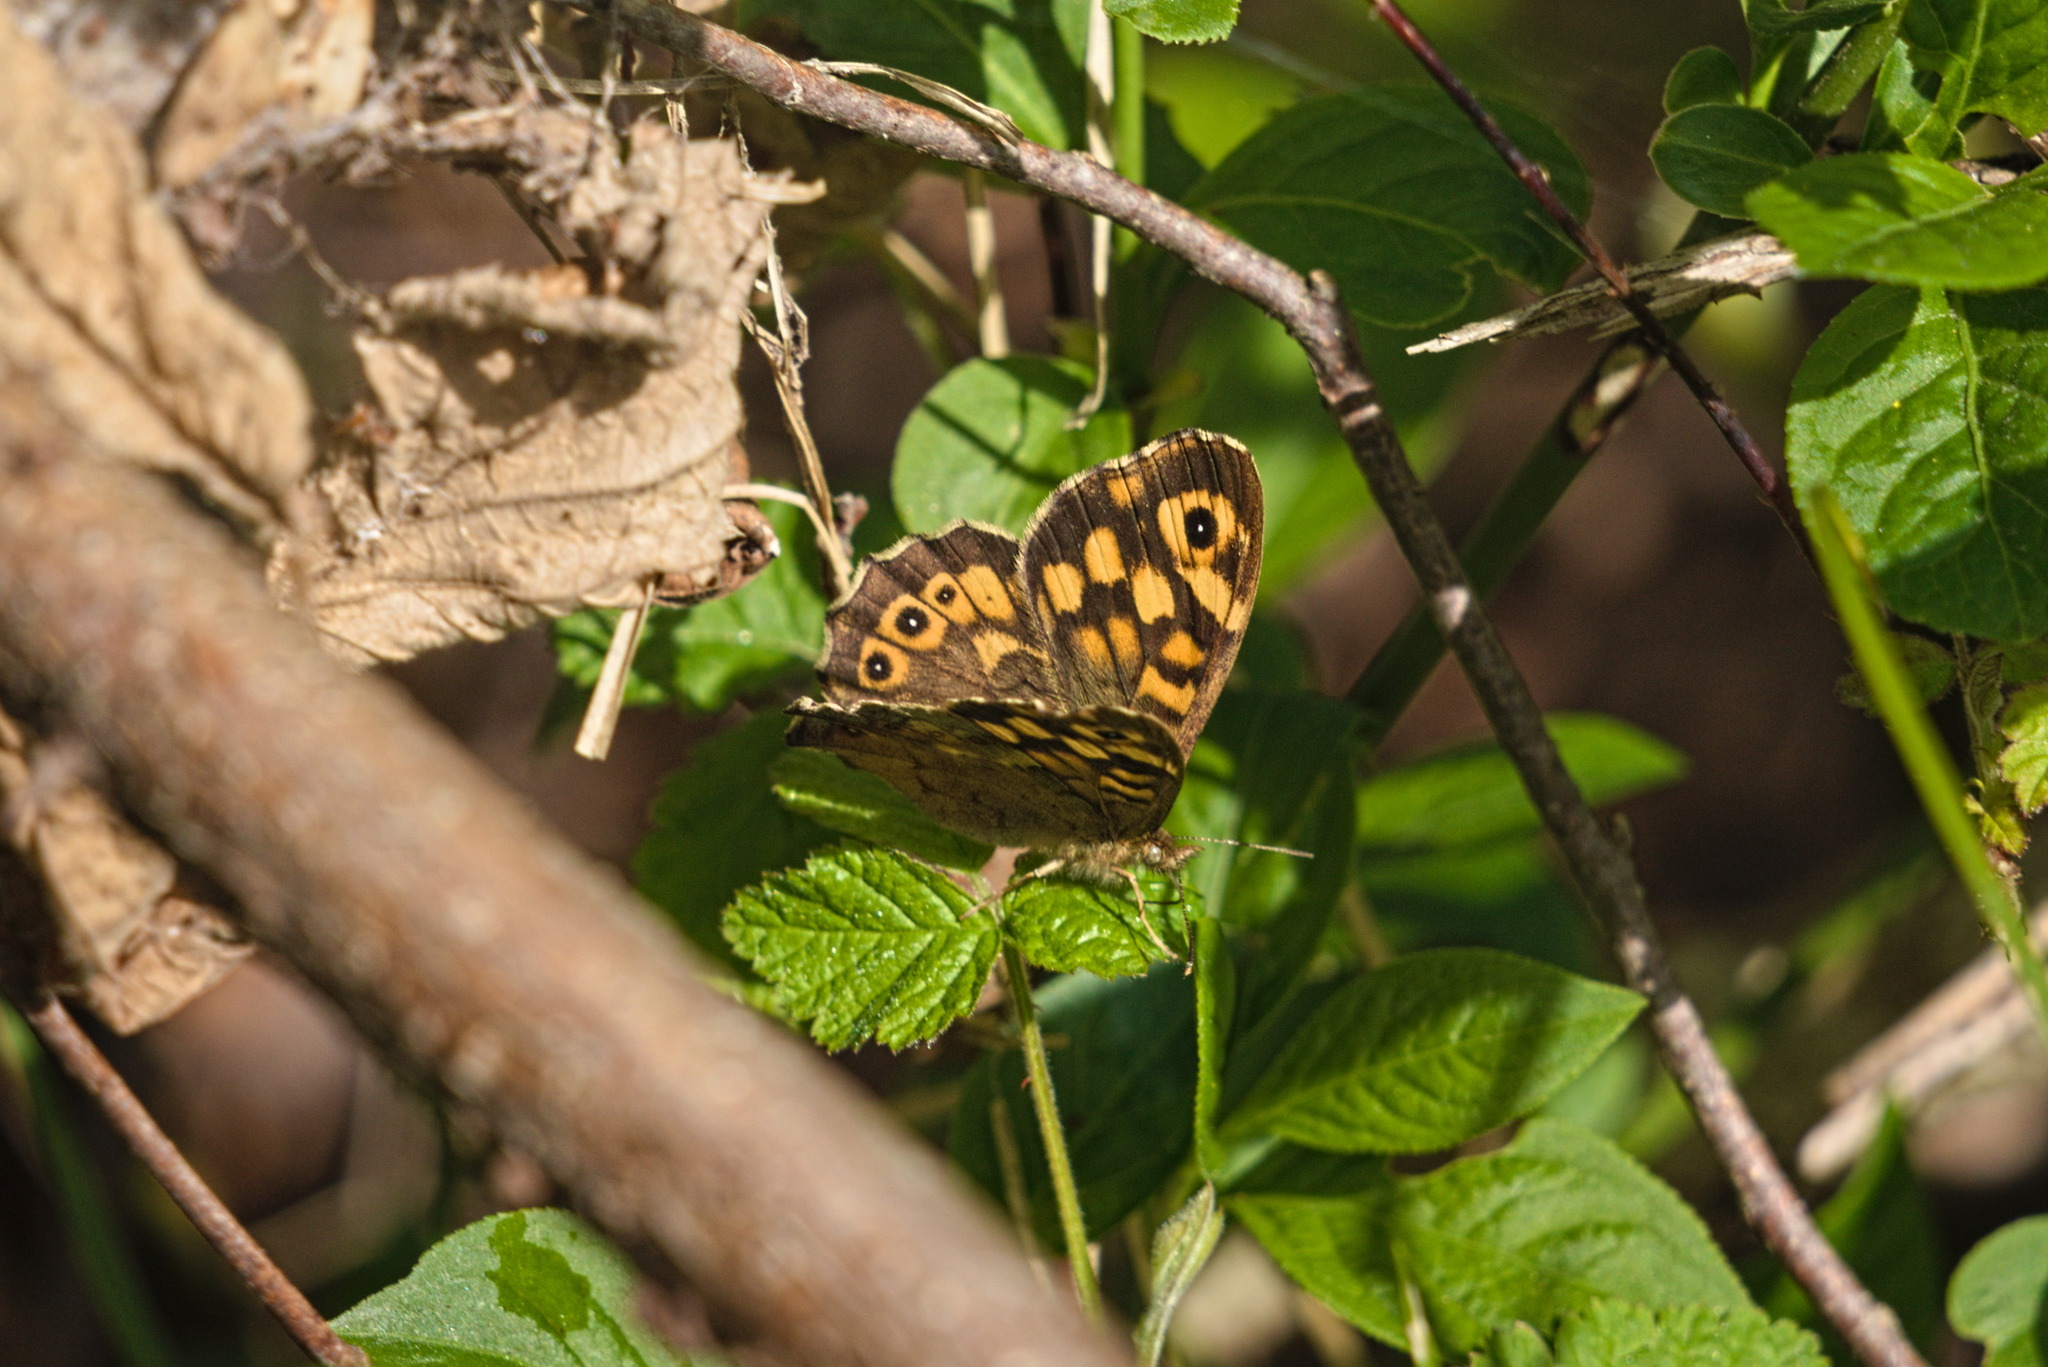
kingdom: Animalia
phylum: Arthropoda
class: Insecta
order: Lepidoptera
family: Nymphalidae
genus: Pararge
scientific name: Pararge aegeria
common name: Speckled wood
